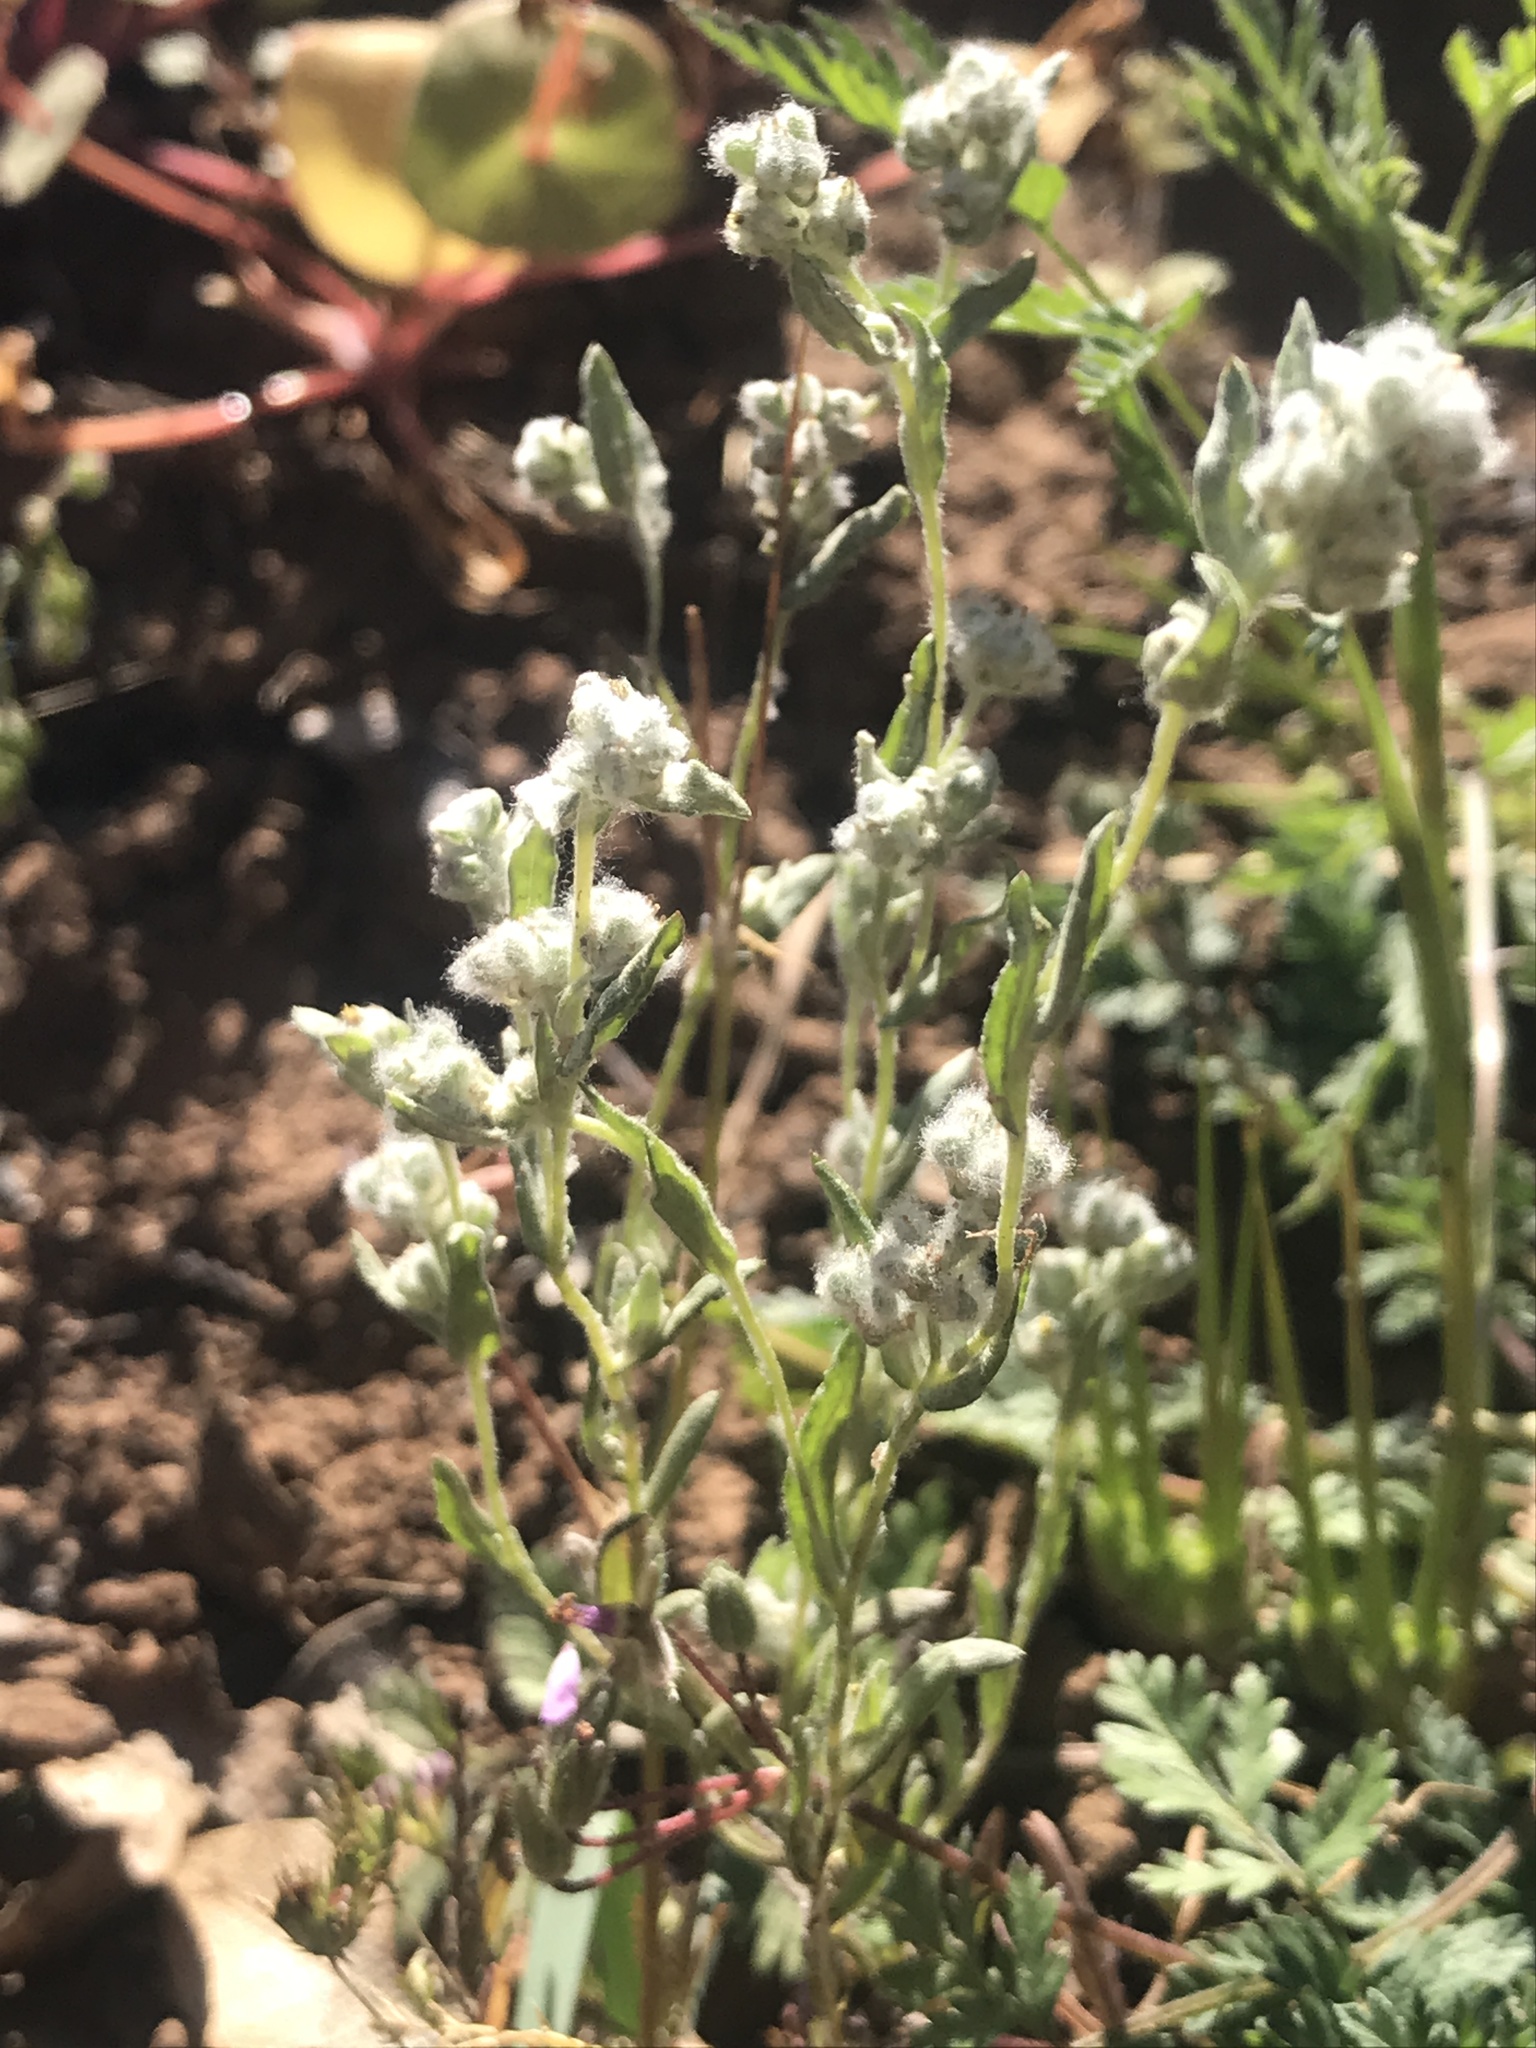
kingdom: Plantae
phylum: Tracheophyta
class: Magnoliopsida
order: Asterales
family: Asteraceae
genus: Bombycilaena
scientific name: Bombycilaena californica
